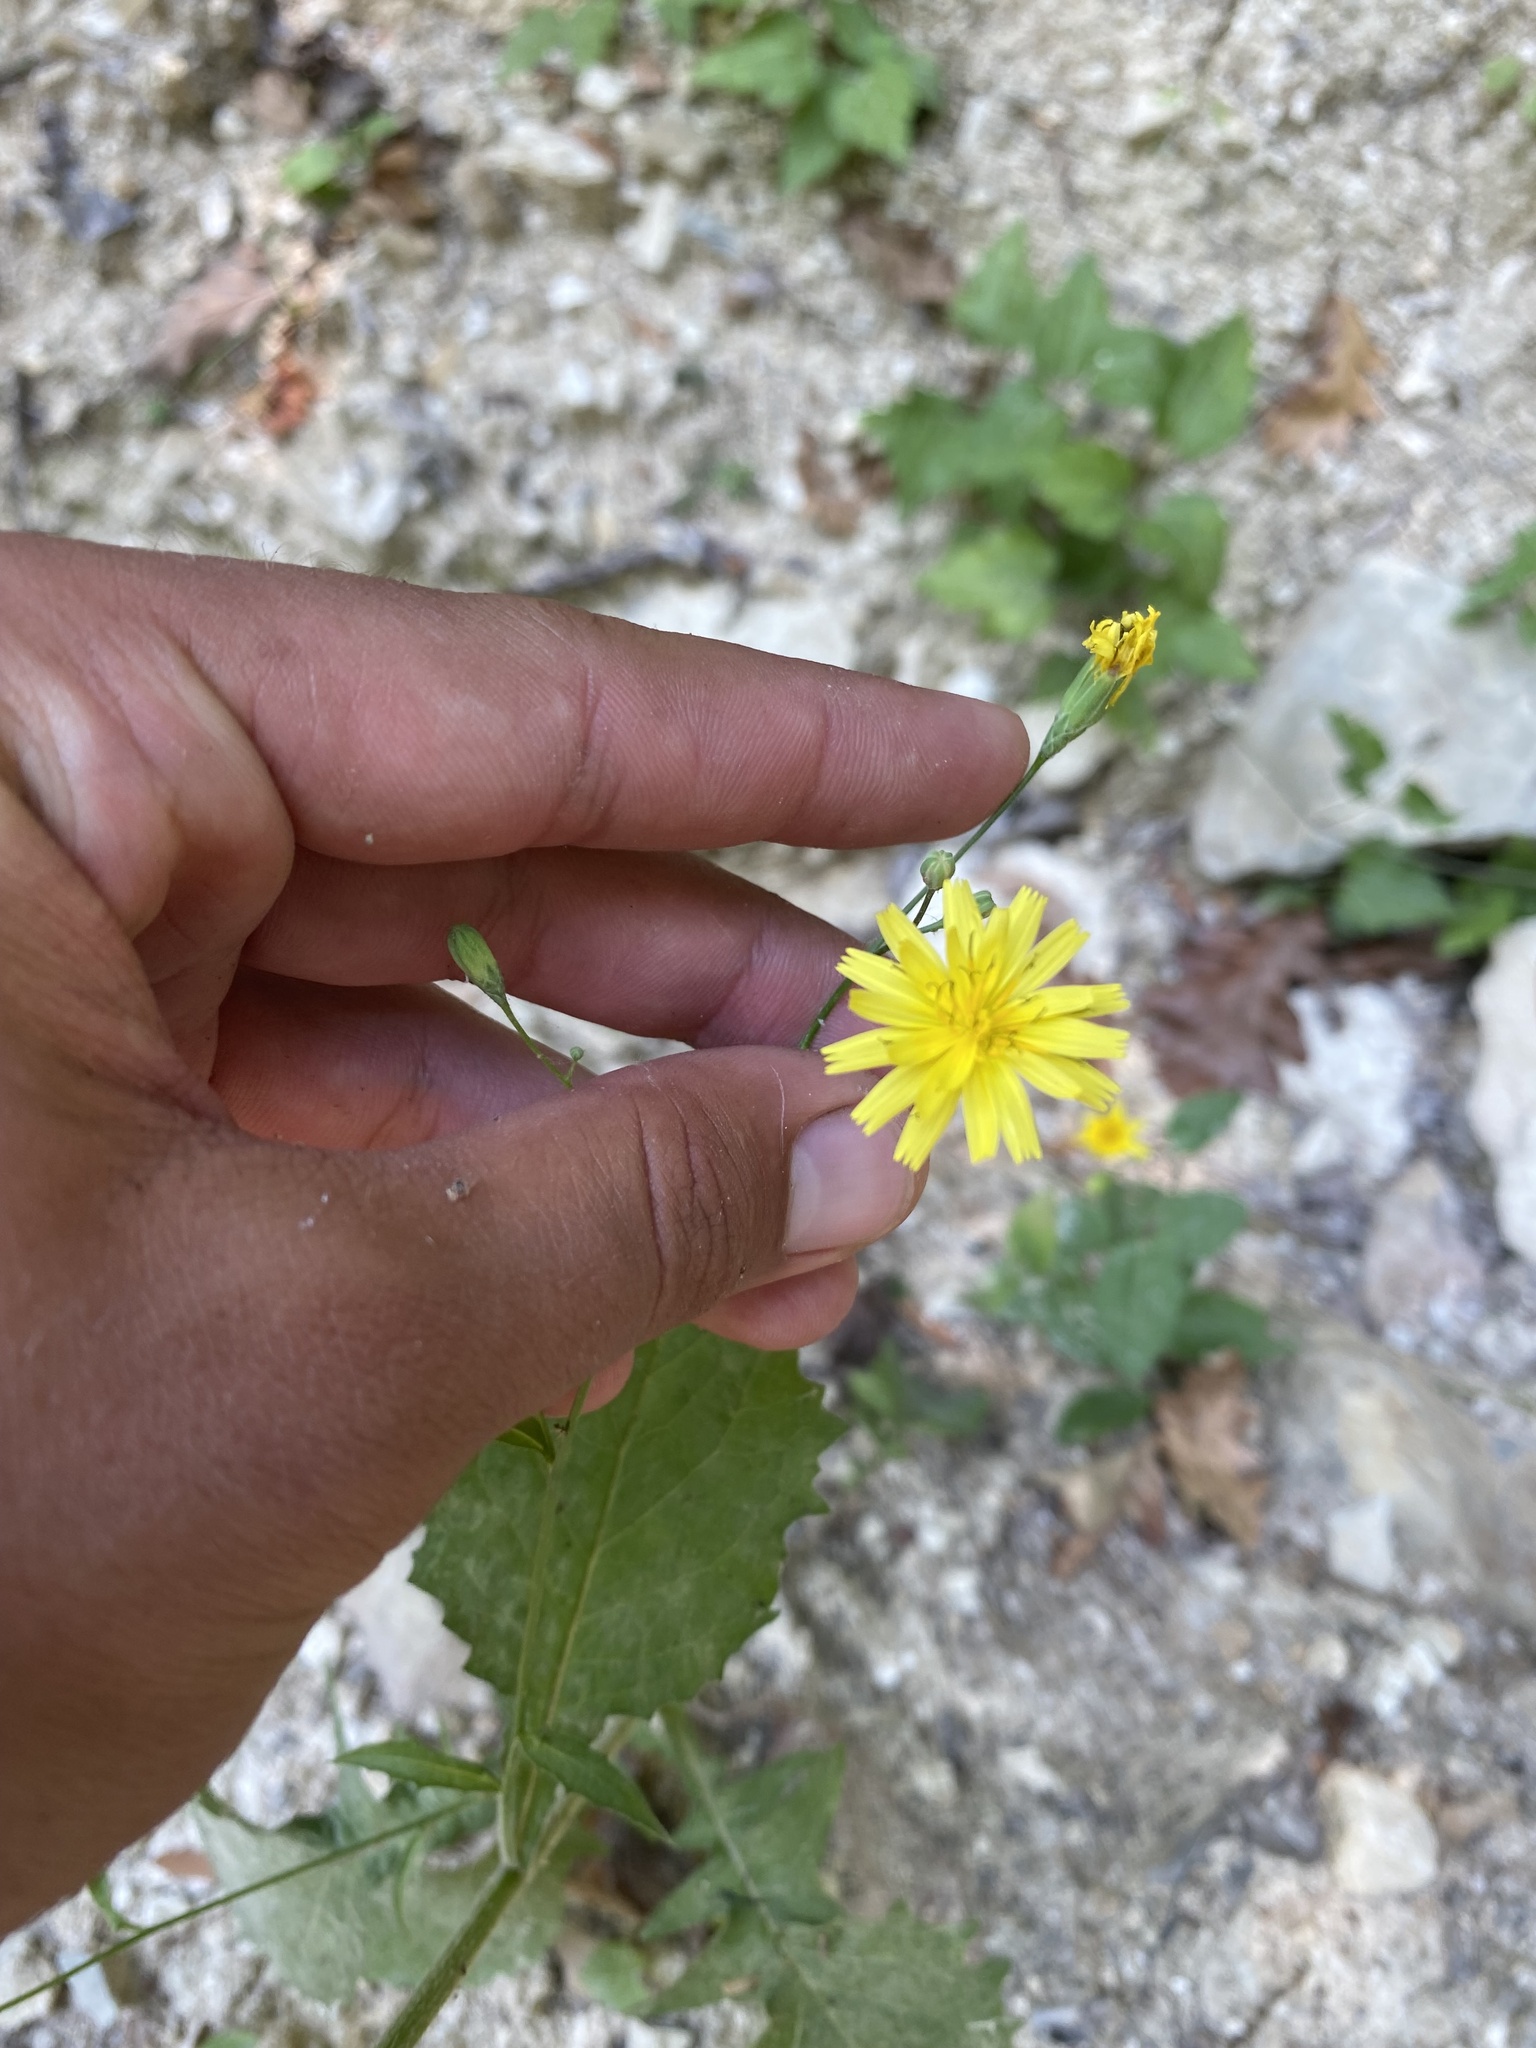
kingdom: Plantae
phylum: Tracheophyta
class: Magnoliopsida
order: Asterales
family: Asteraceae
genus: Lapsana
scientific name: Lapsana communis
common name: Nipplewort
